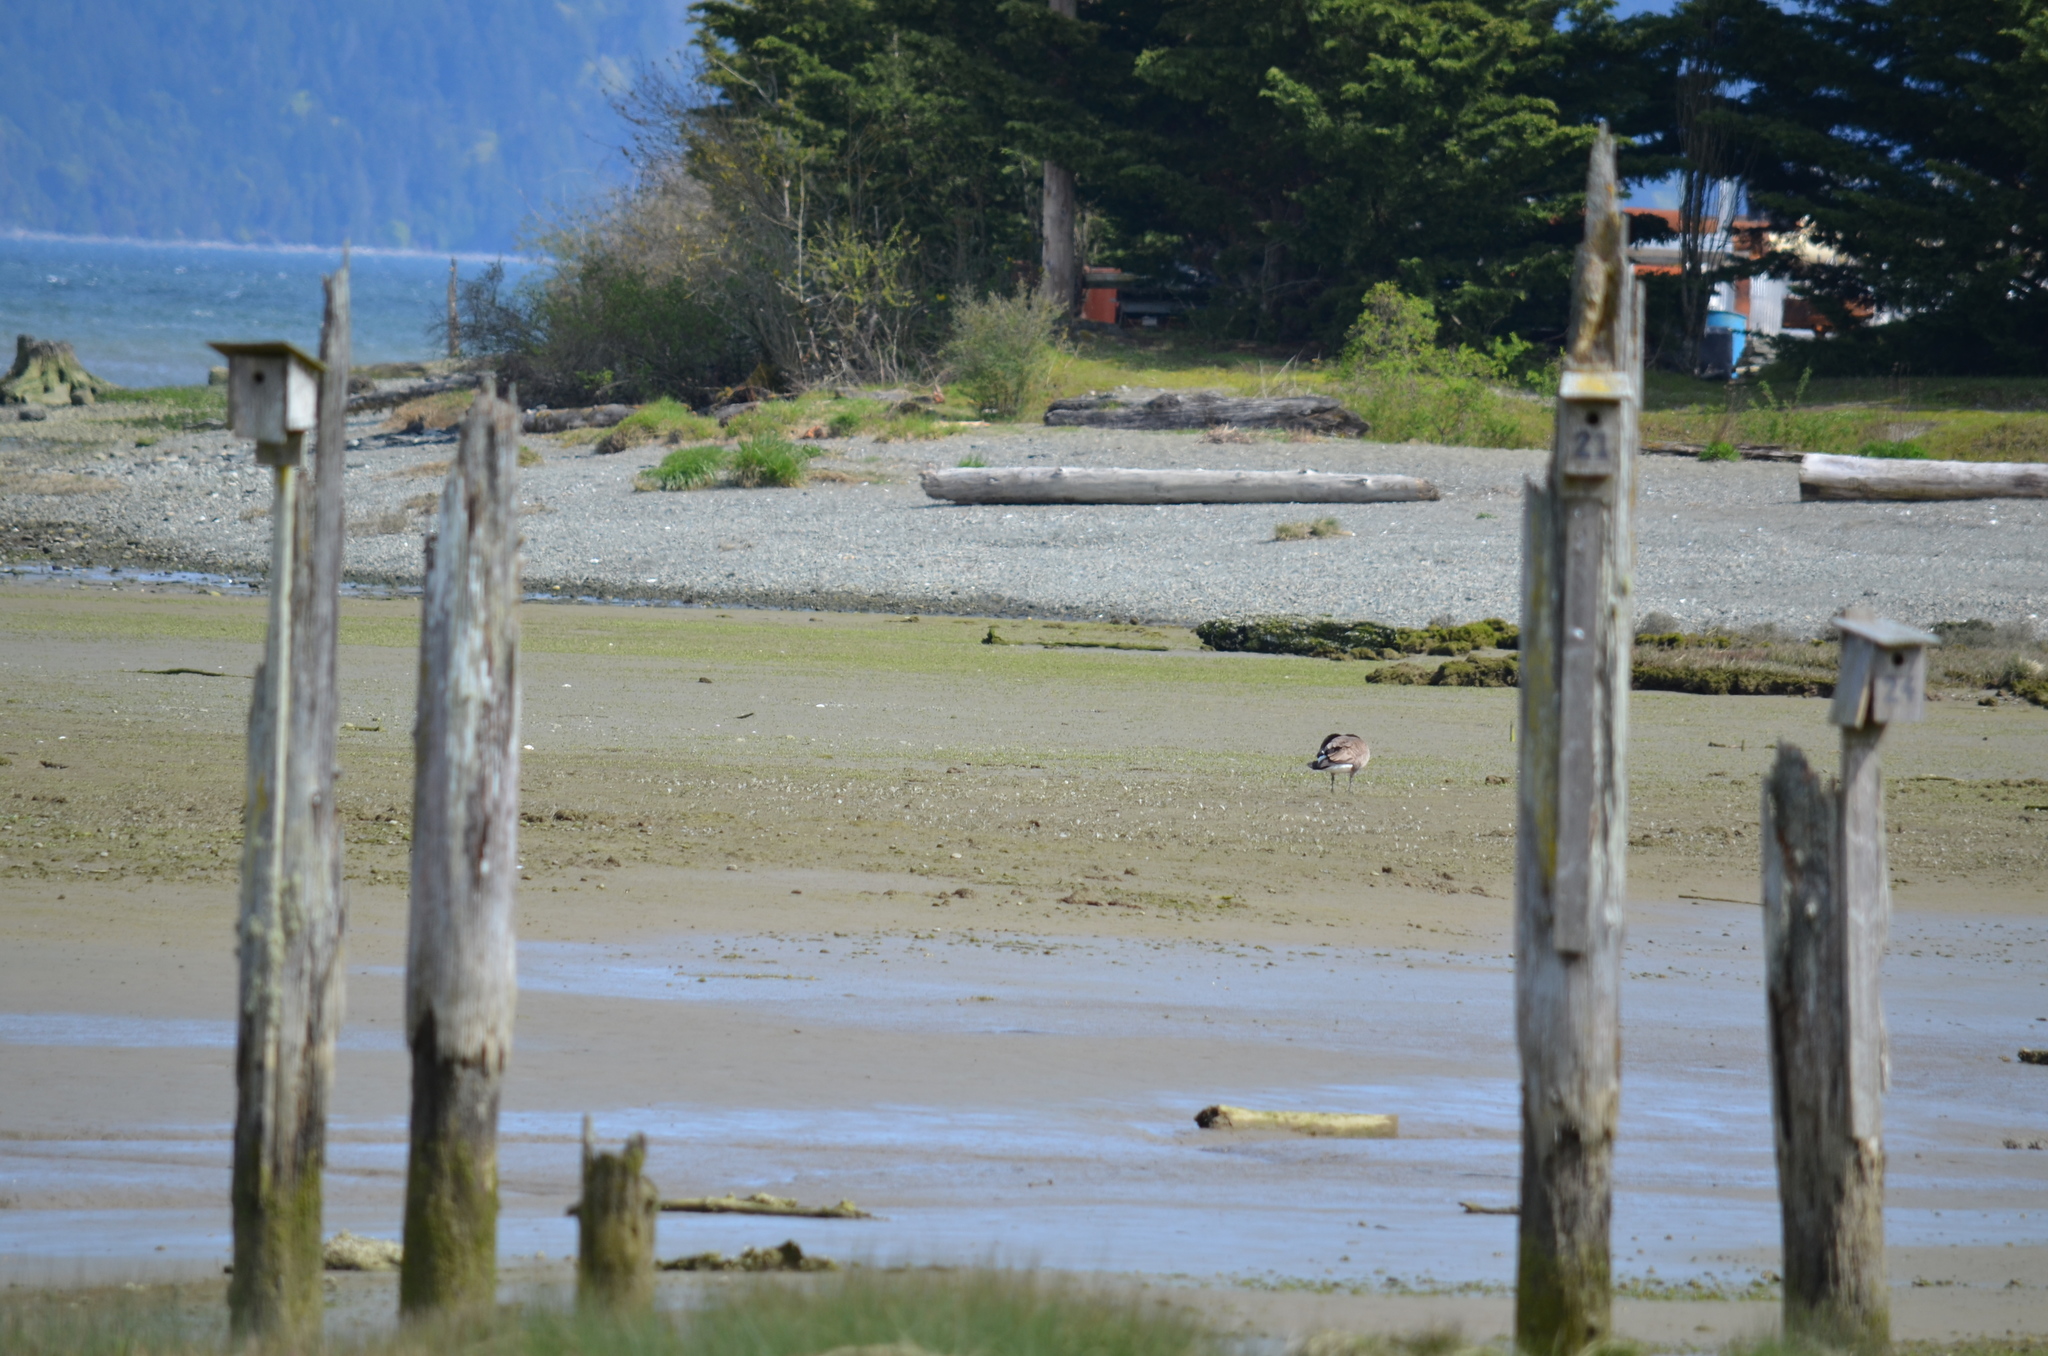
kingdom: Animalia
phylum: Chordata
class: Aves
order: Anseriformes
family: Anatidae
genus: Branta
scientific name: Branta canadensis
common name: Canada goose
